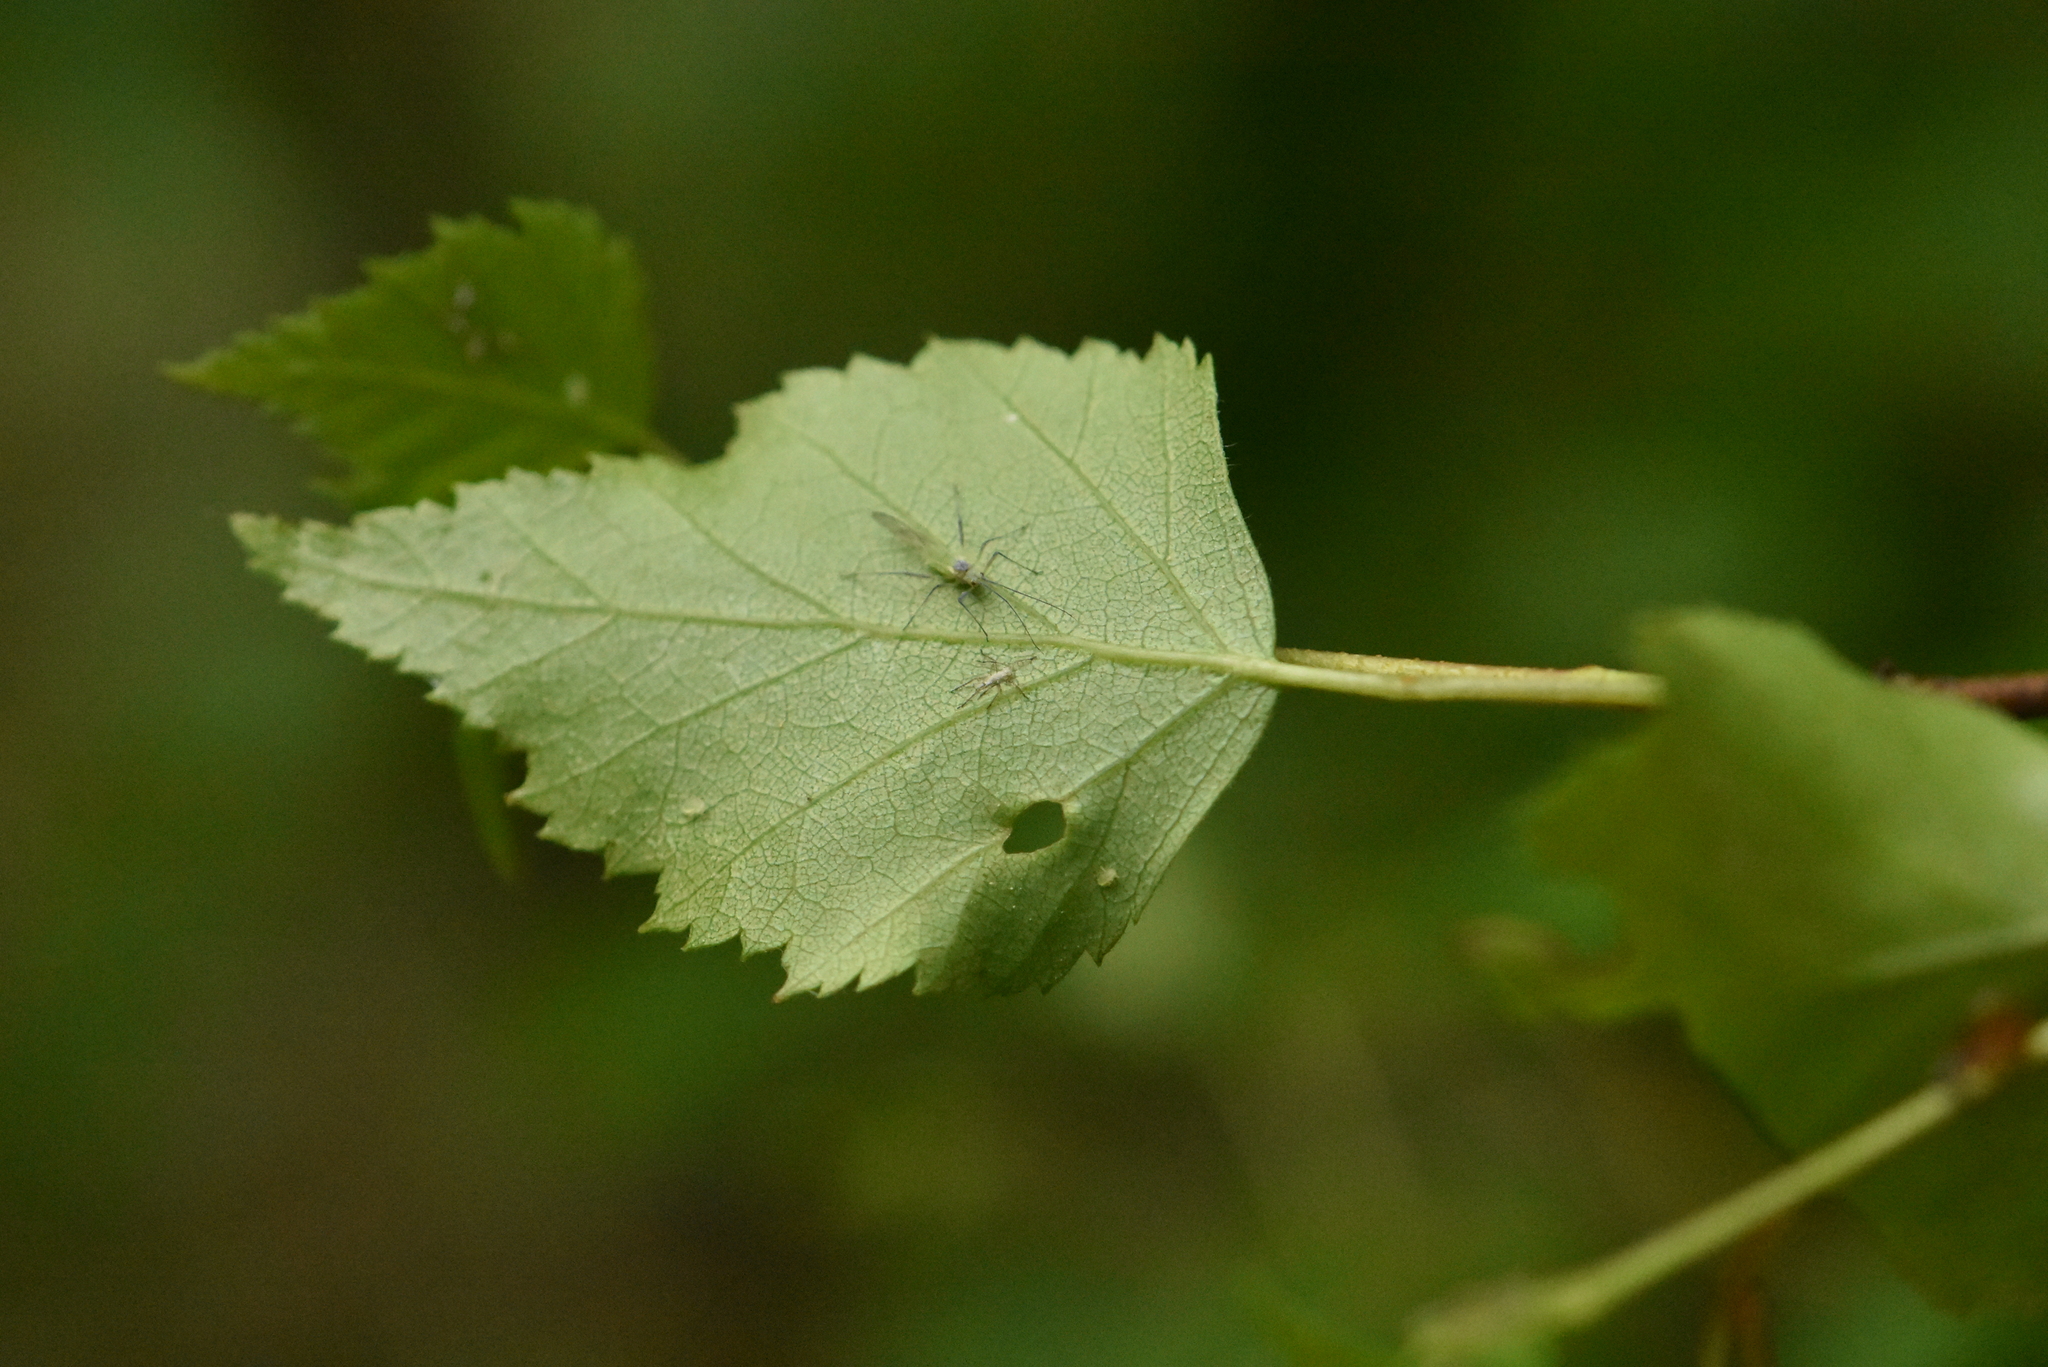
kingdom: Plantae
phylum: Tracheophyta
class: Magnoliopsida
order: Fagales
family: Betulaceae
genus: Betula
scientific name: Betula pendula
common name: Silver birch
